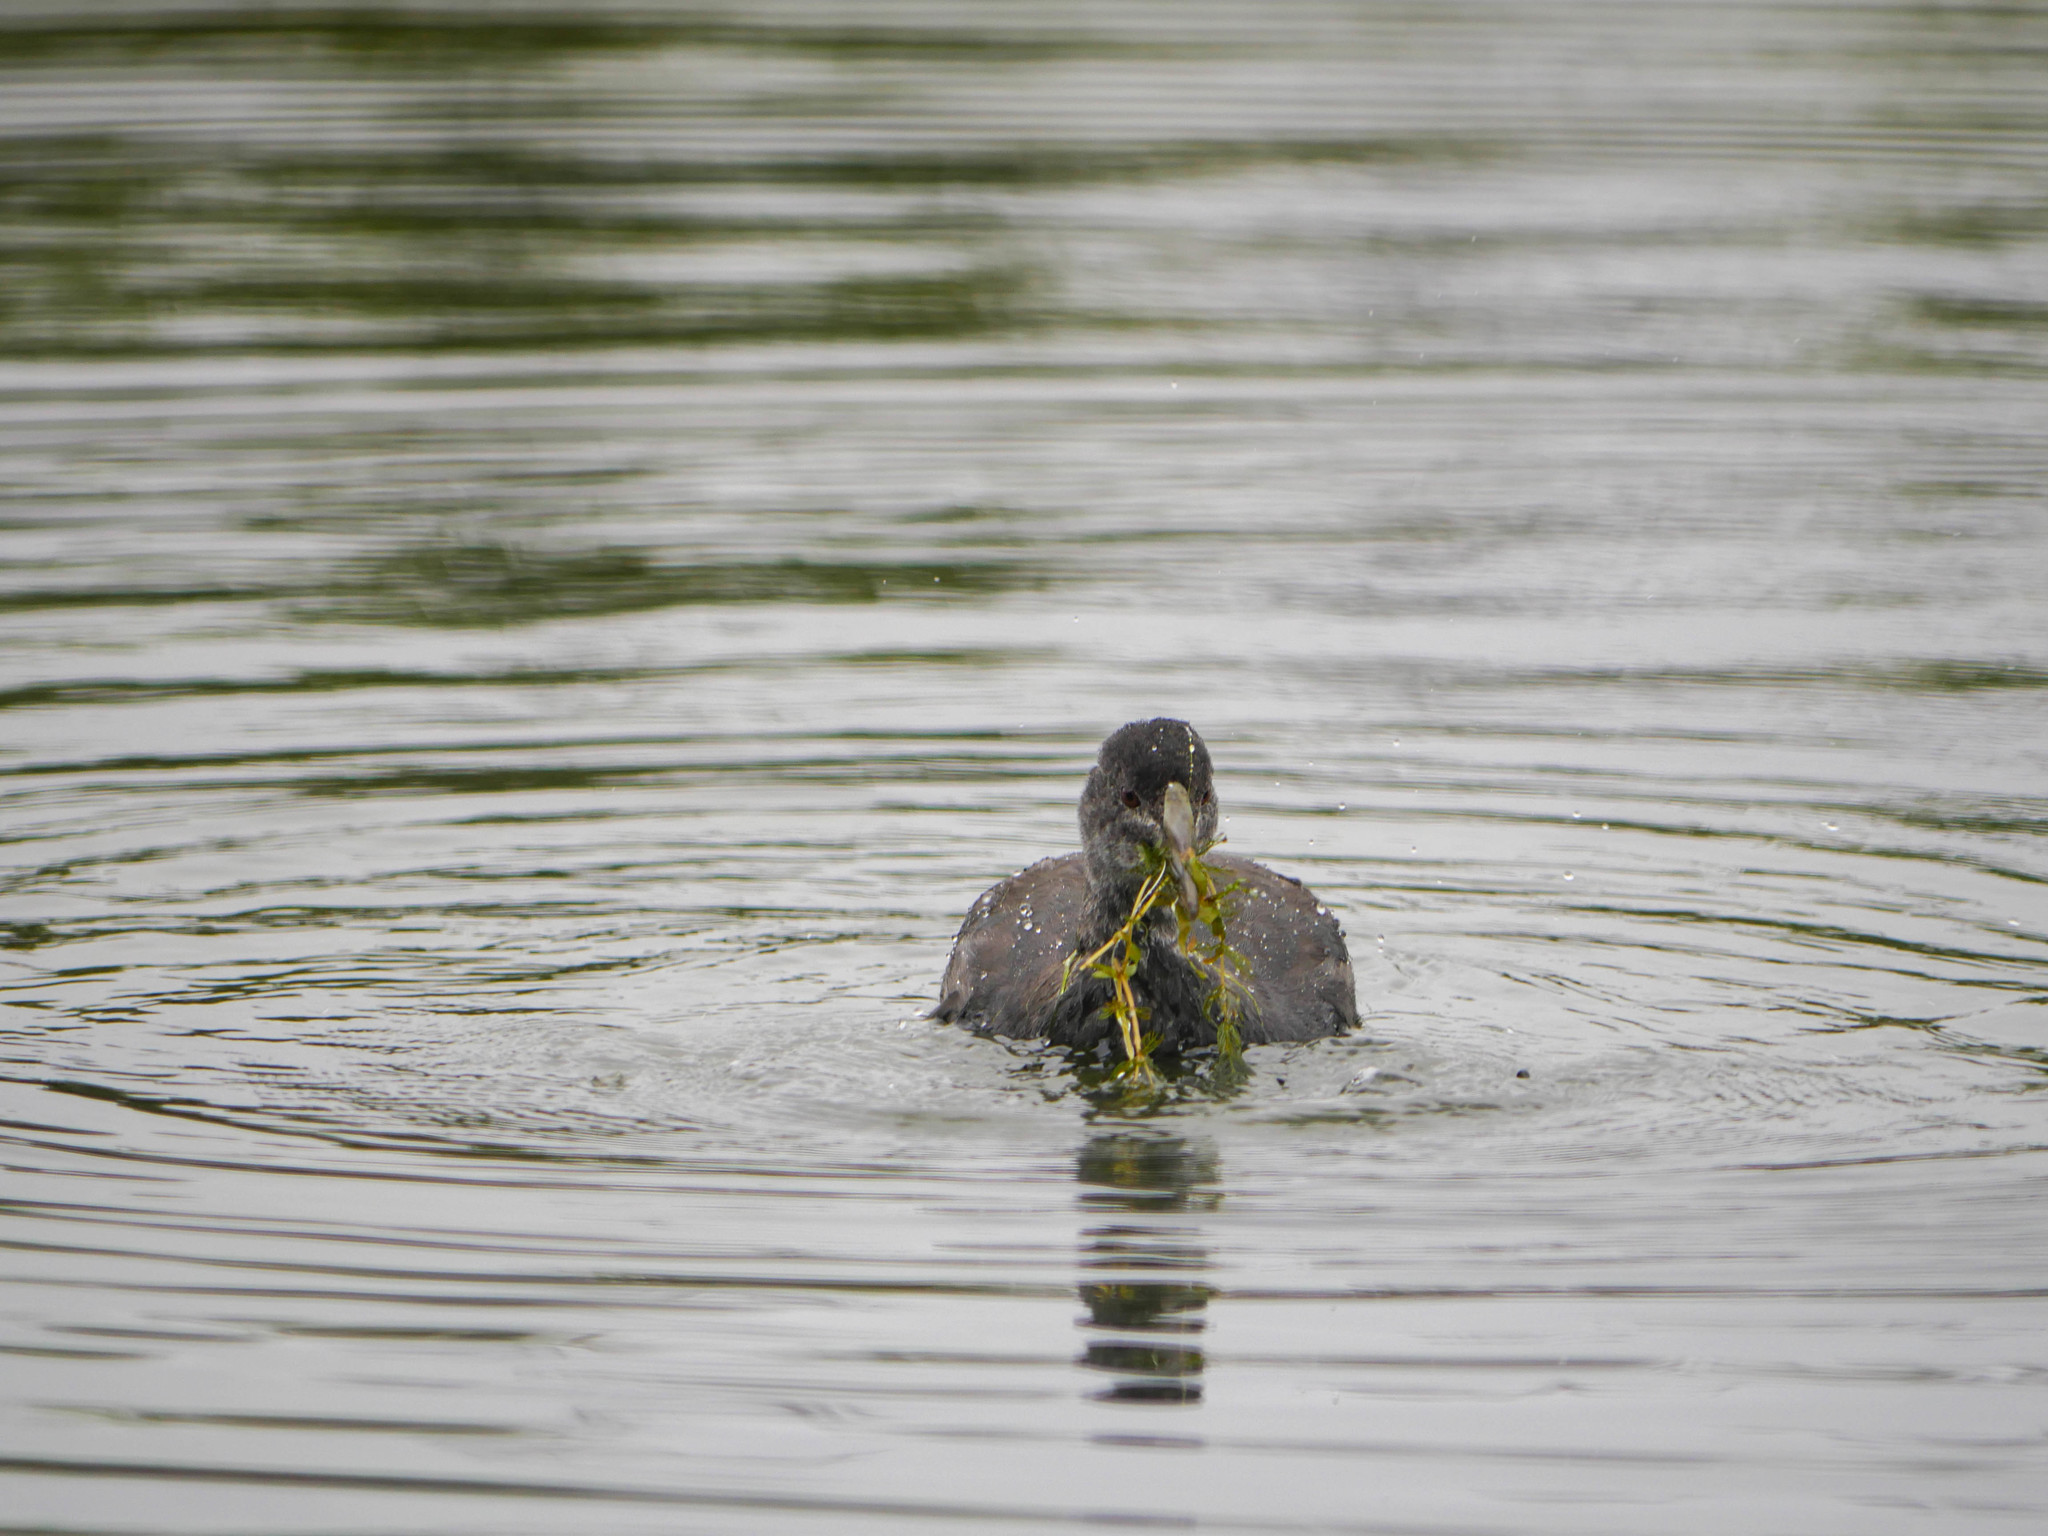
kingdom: Animalia
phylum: Chordata
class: Aves
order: Gruiformes
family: Rallidae
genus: Fulica
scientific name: Fulica atra
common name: Eurasian coot
